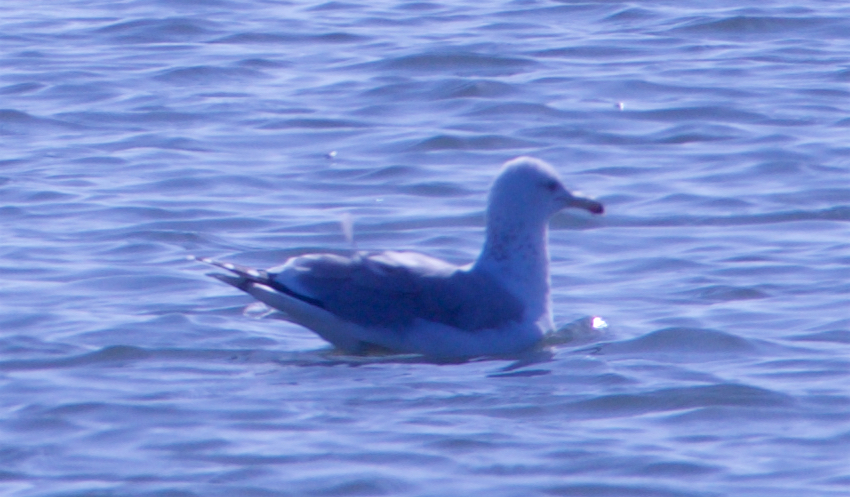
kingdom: Animalia
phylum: Chordata
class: Aves
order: Charadriiformes
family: Laridae
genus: Larus
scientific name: Larus californicus
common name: California gull
